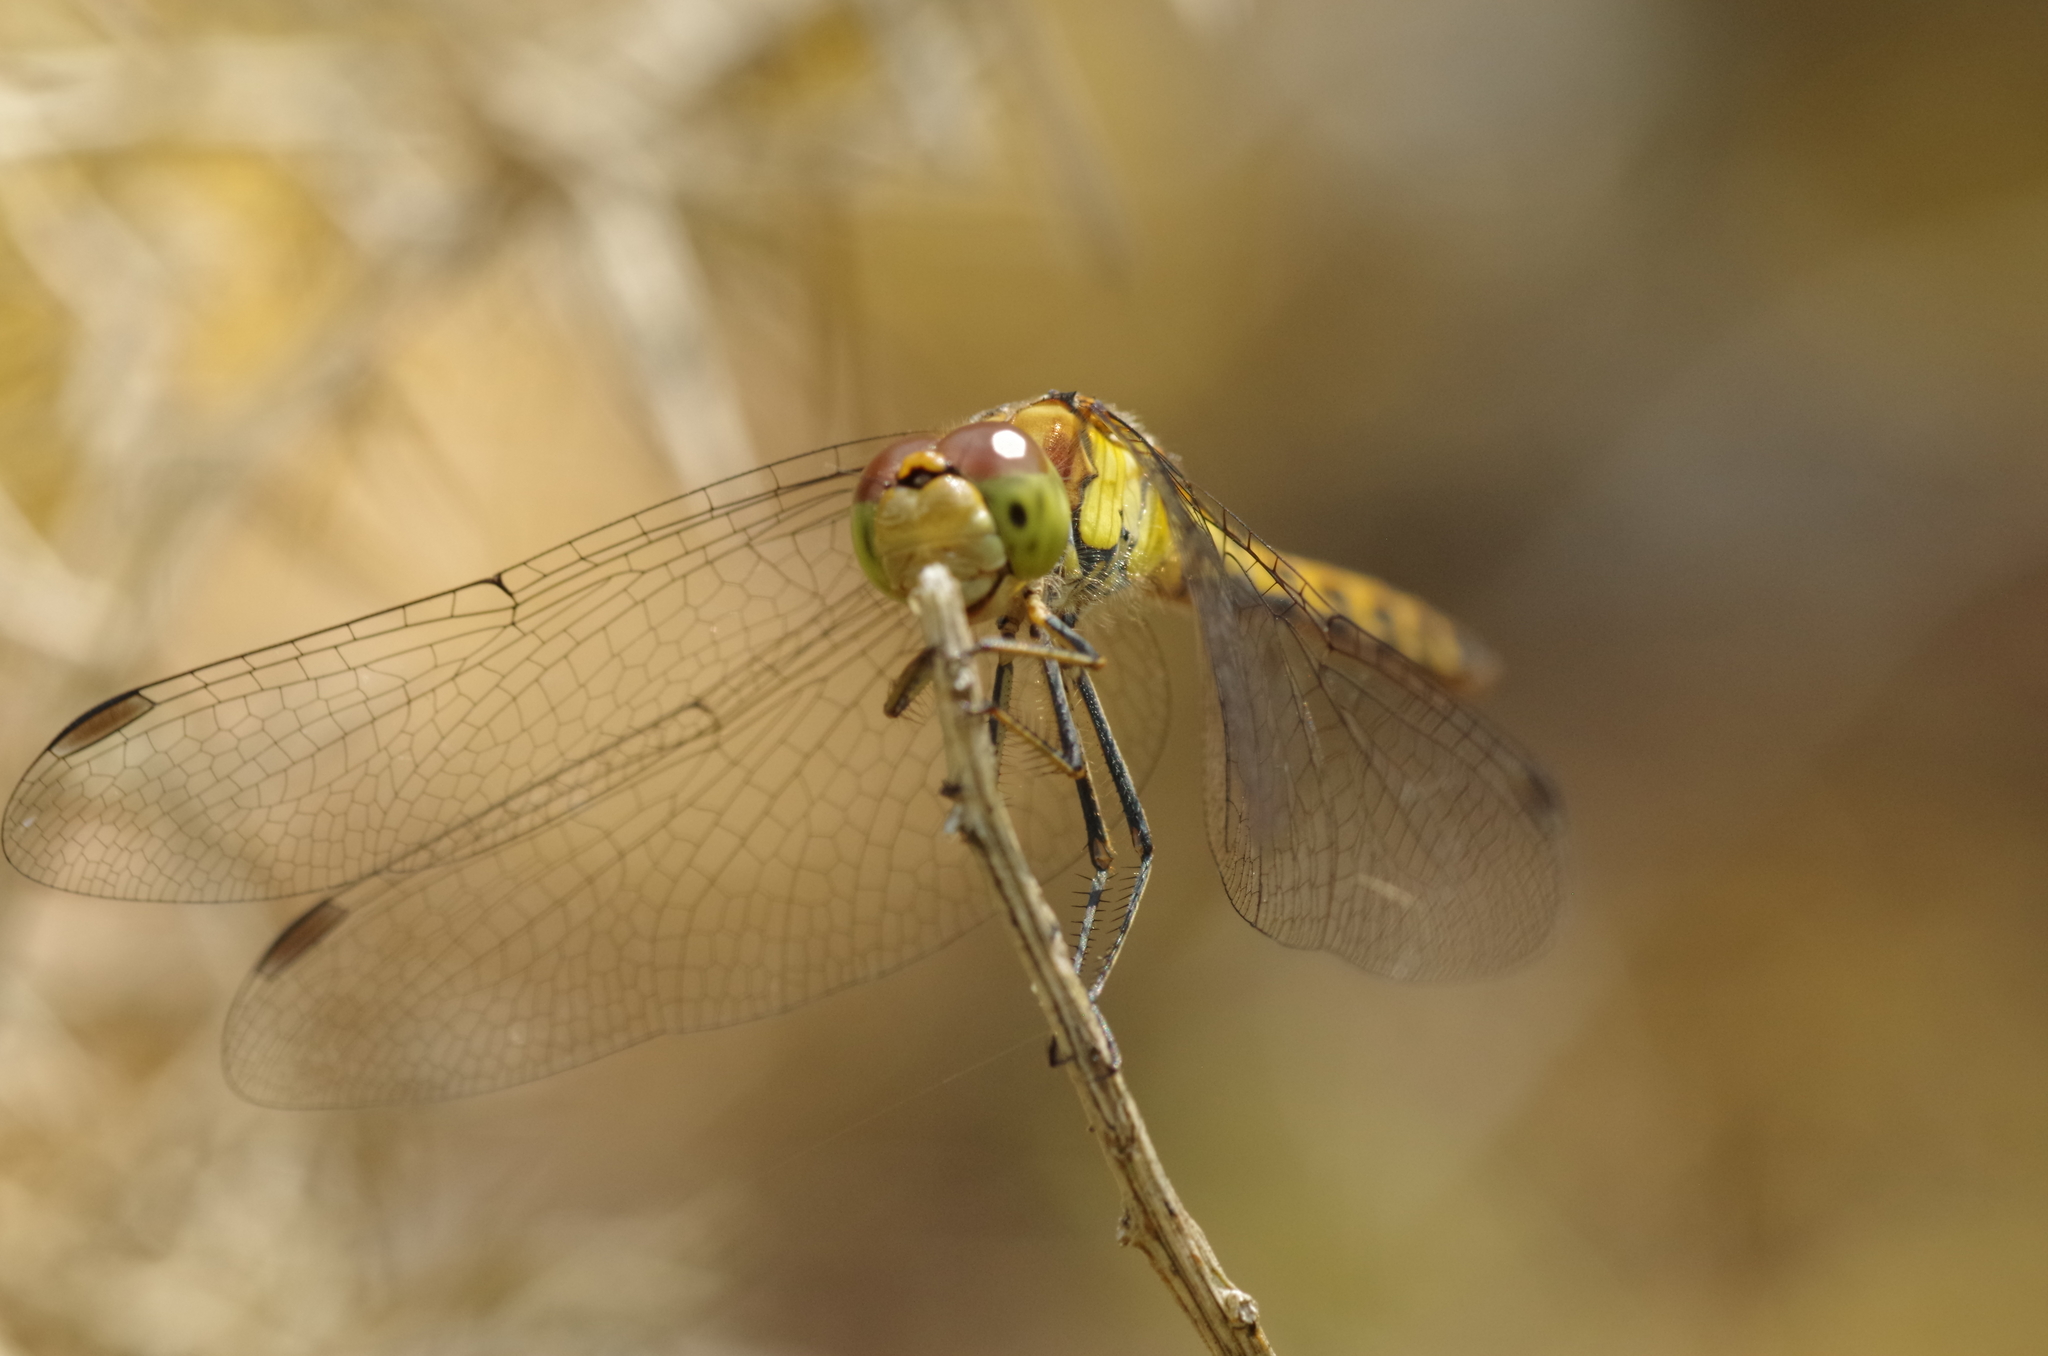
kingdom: Animalia
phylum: Arthropoda
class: Insecta
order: Odonata
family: Libellulidae
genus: Sympetrum
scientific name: Sympetrum striolatum
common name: Common darter
